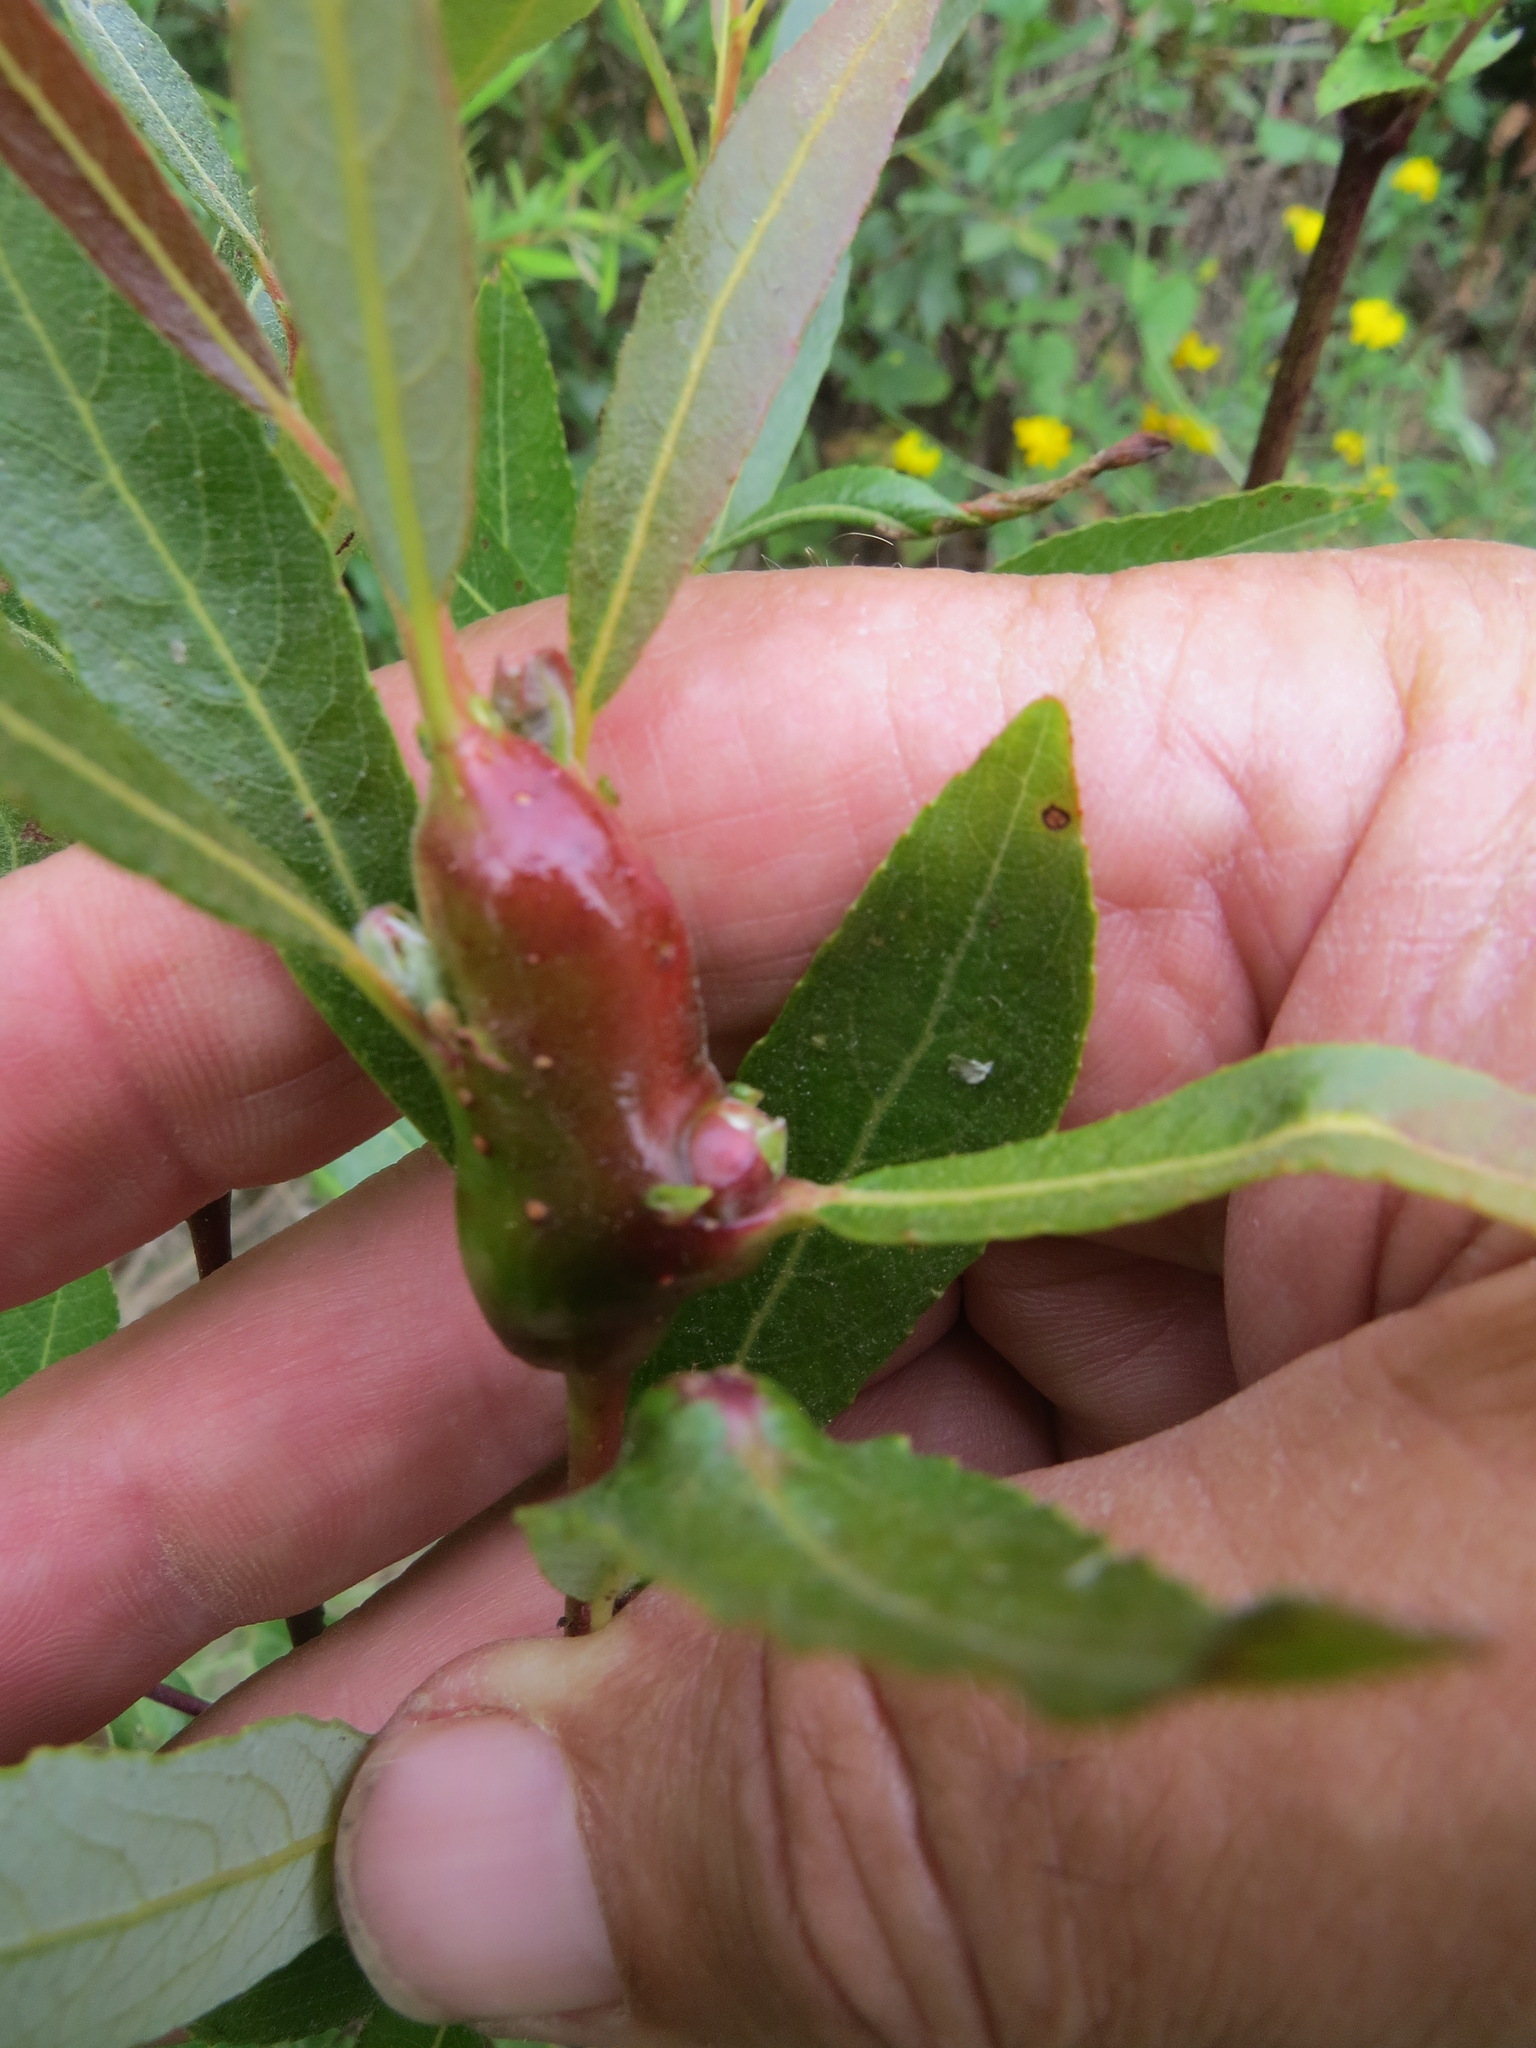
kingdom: Animalia
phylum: Arthropoda
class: Insecta
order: Diptera
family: Cecidomyiidae
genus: Rabdophaga
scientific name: Rabdophaga salicisbatatas
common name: Potato gall midge
